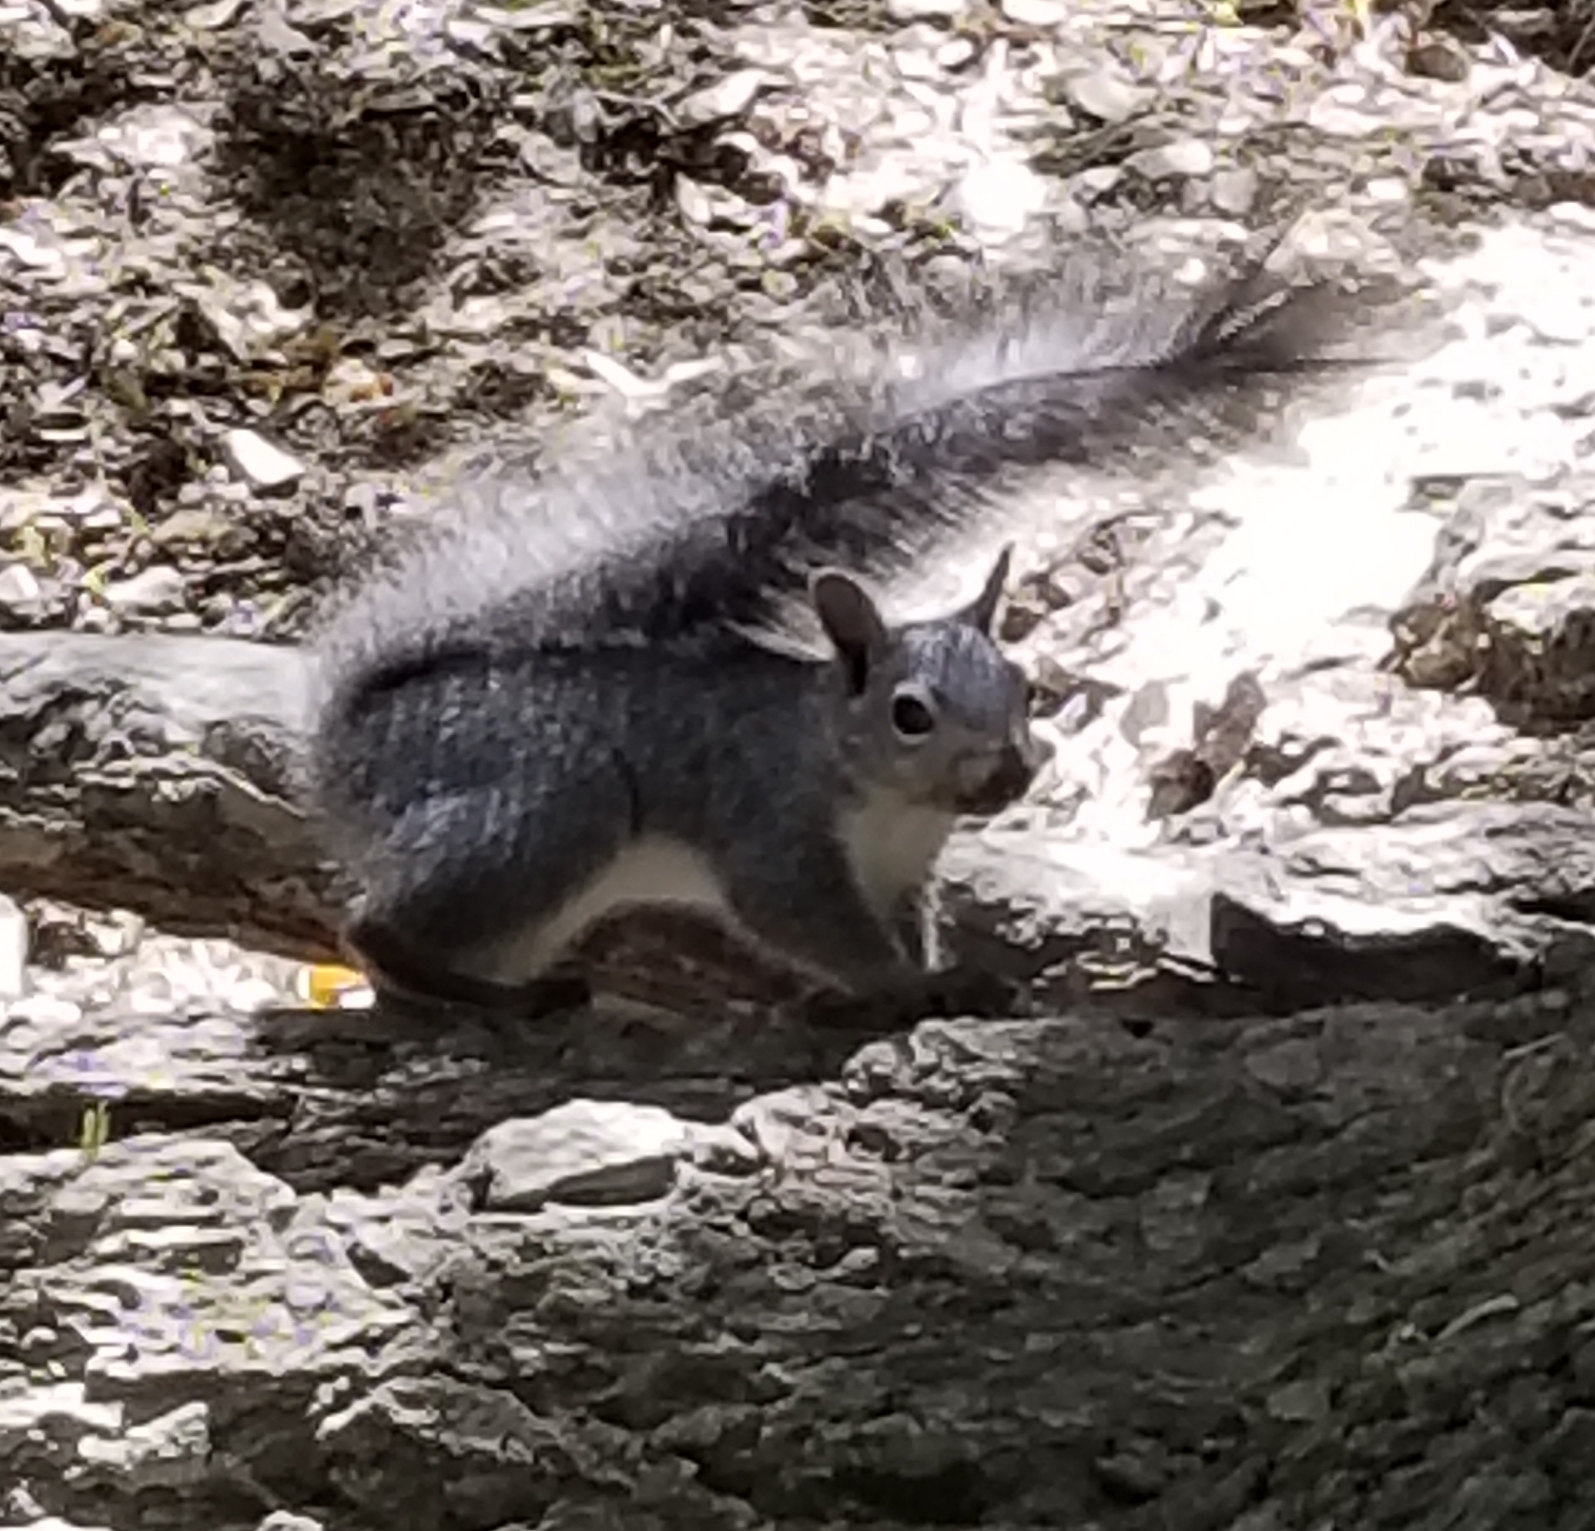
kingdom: Animalia
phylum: Chordata
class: Mammalia
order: Rodentia
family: Sciuridae
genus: Sciurus
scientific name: Sciurus griseus
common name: Western gray squirrel
